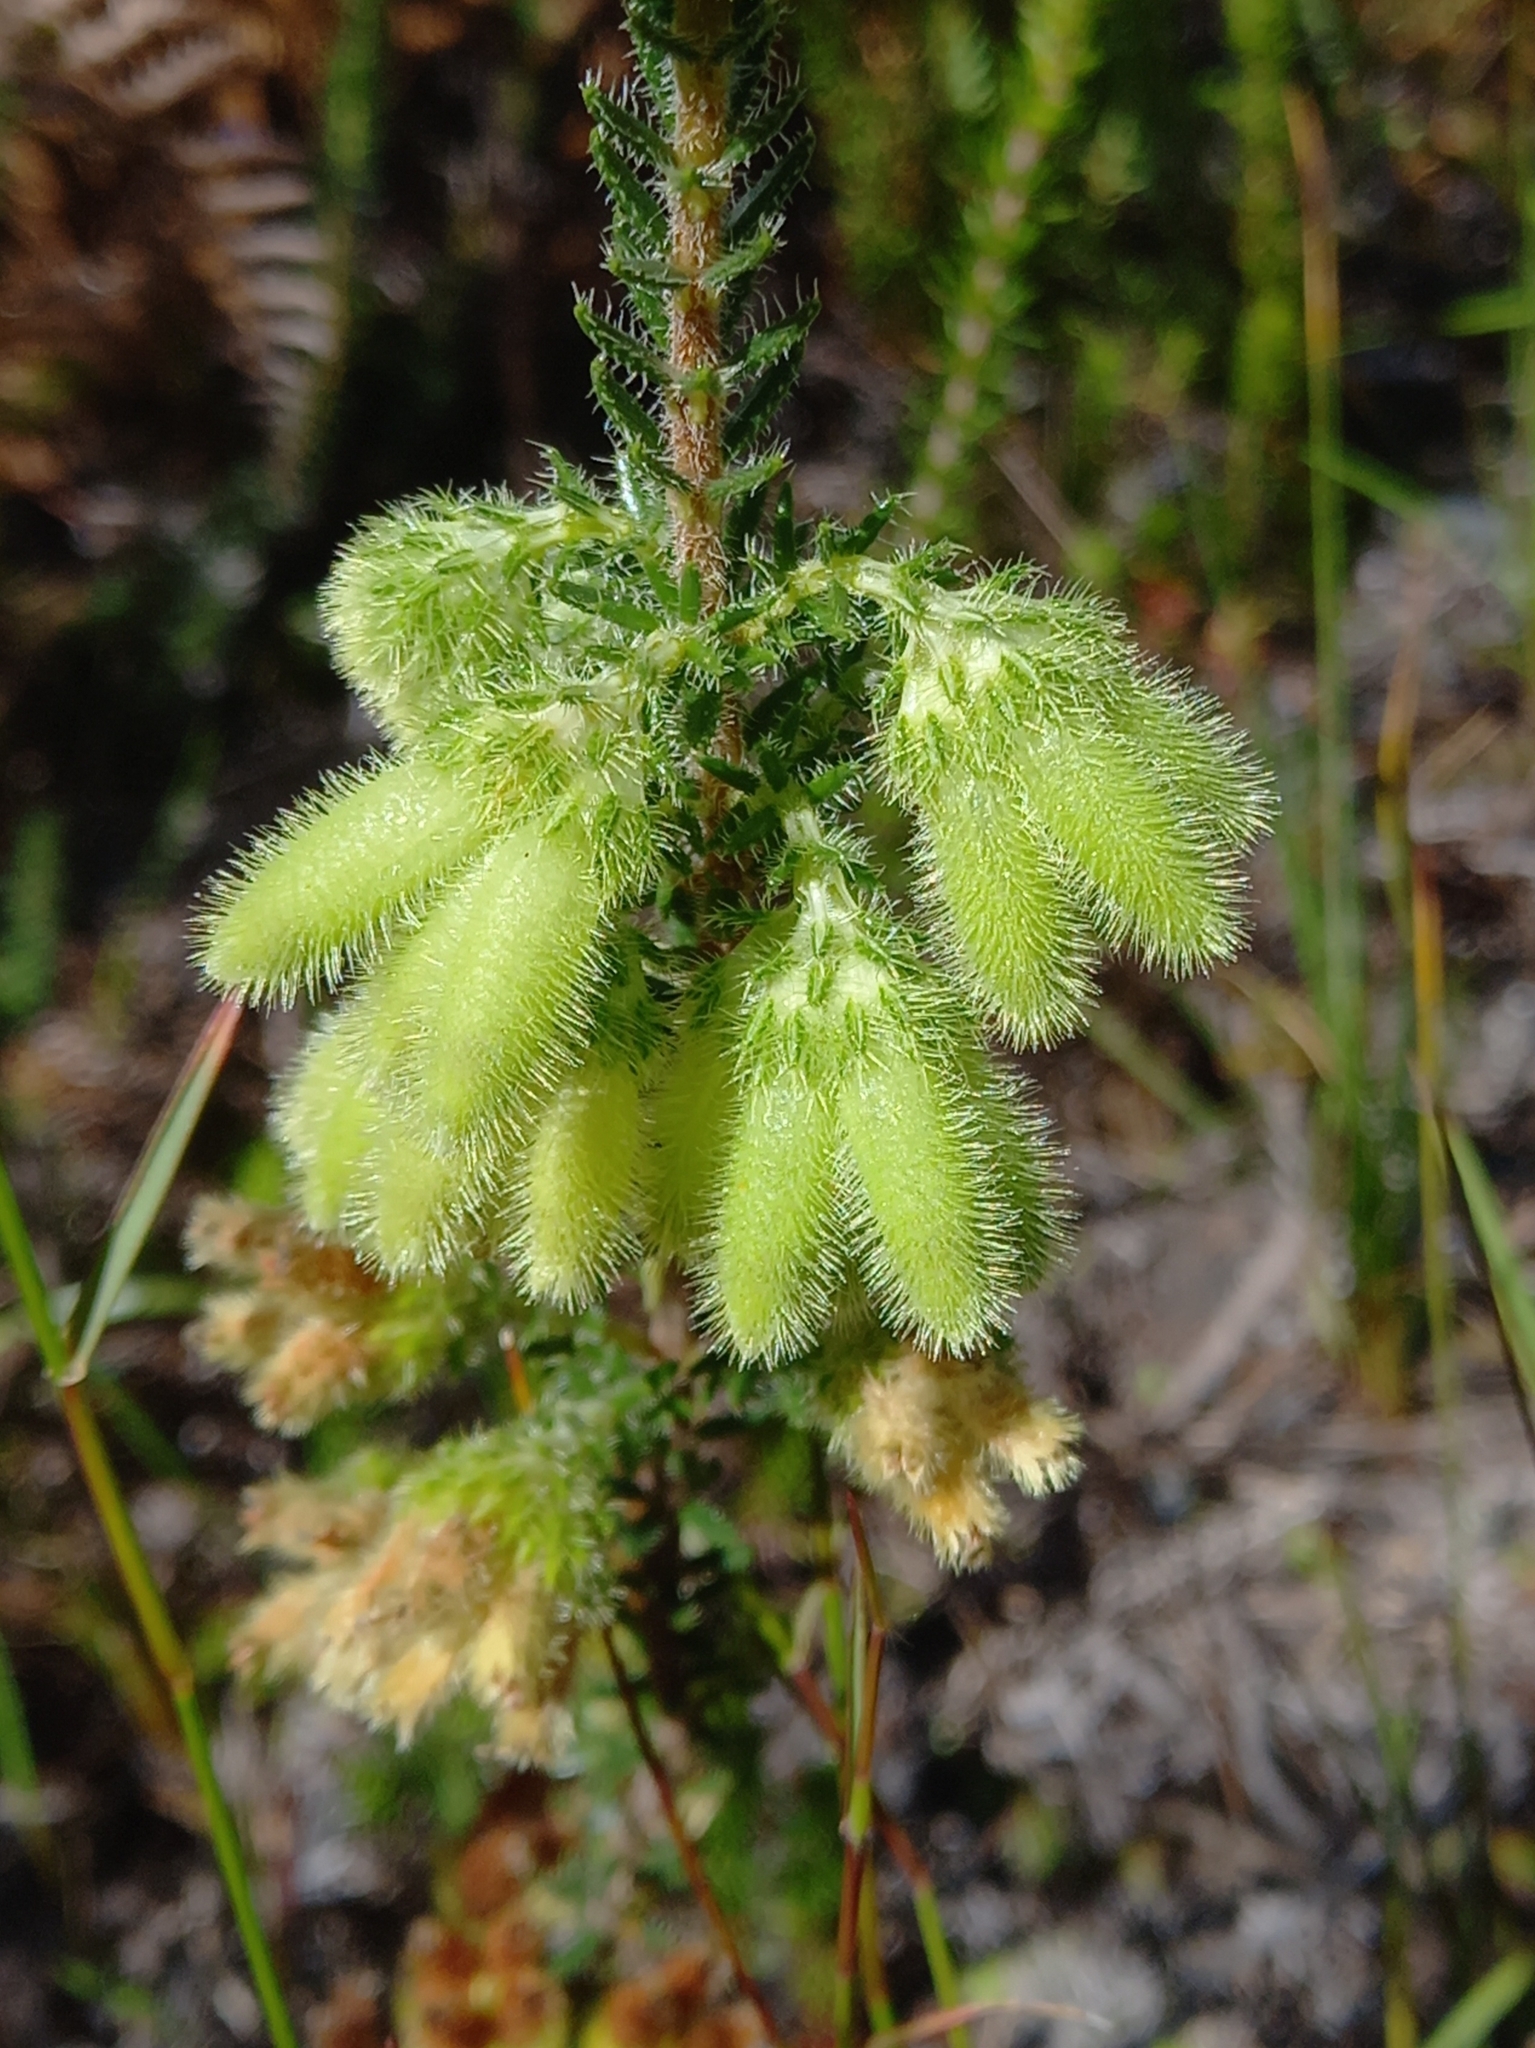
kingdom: Plantae
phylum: Tracheophyta
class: Magnoliopsida
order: Ericales
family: Ericaceae
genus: Erica
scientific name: Erica sparmannii
